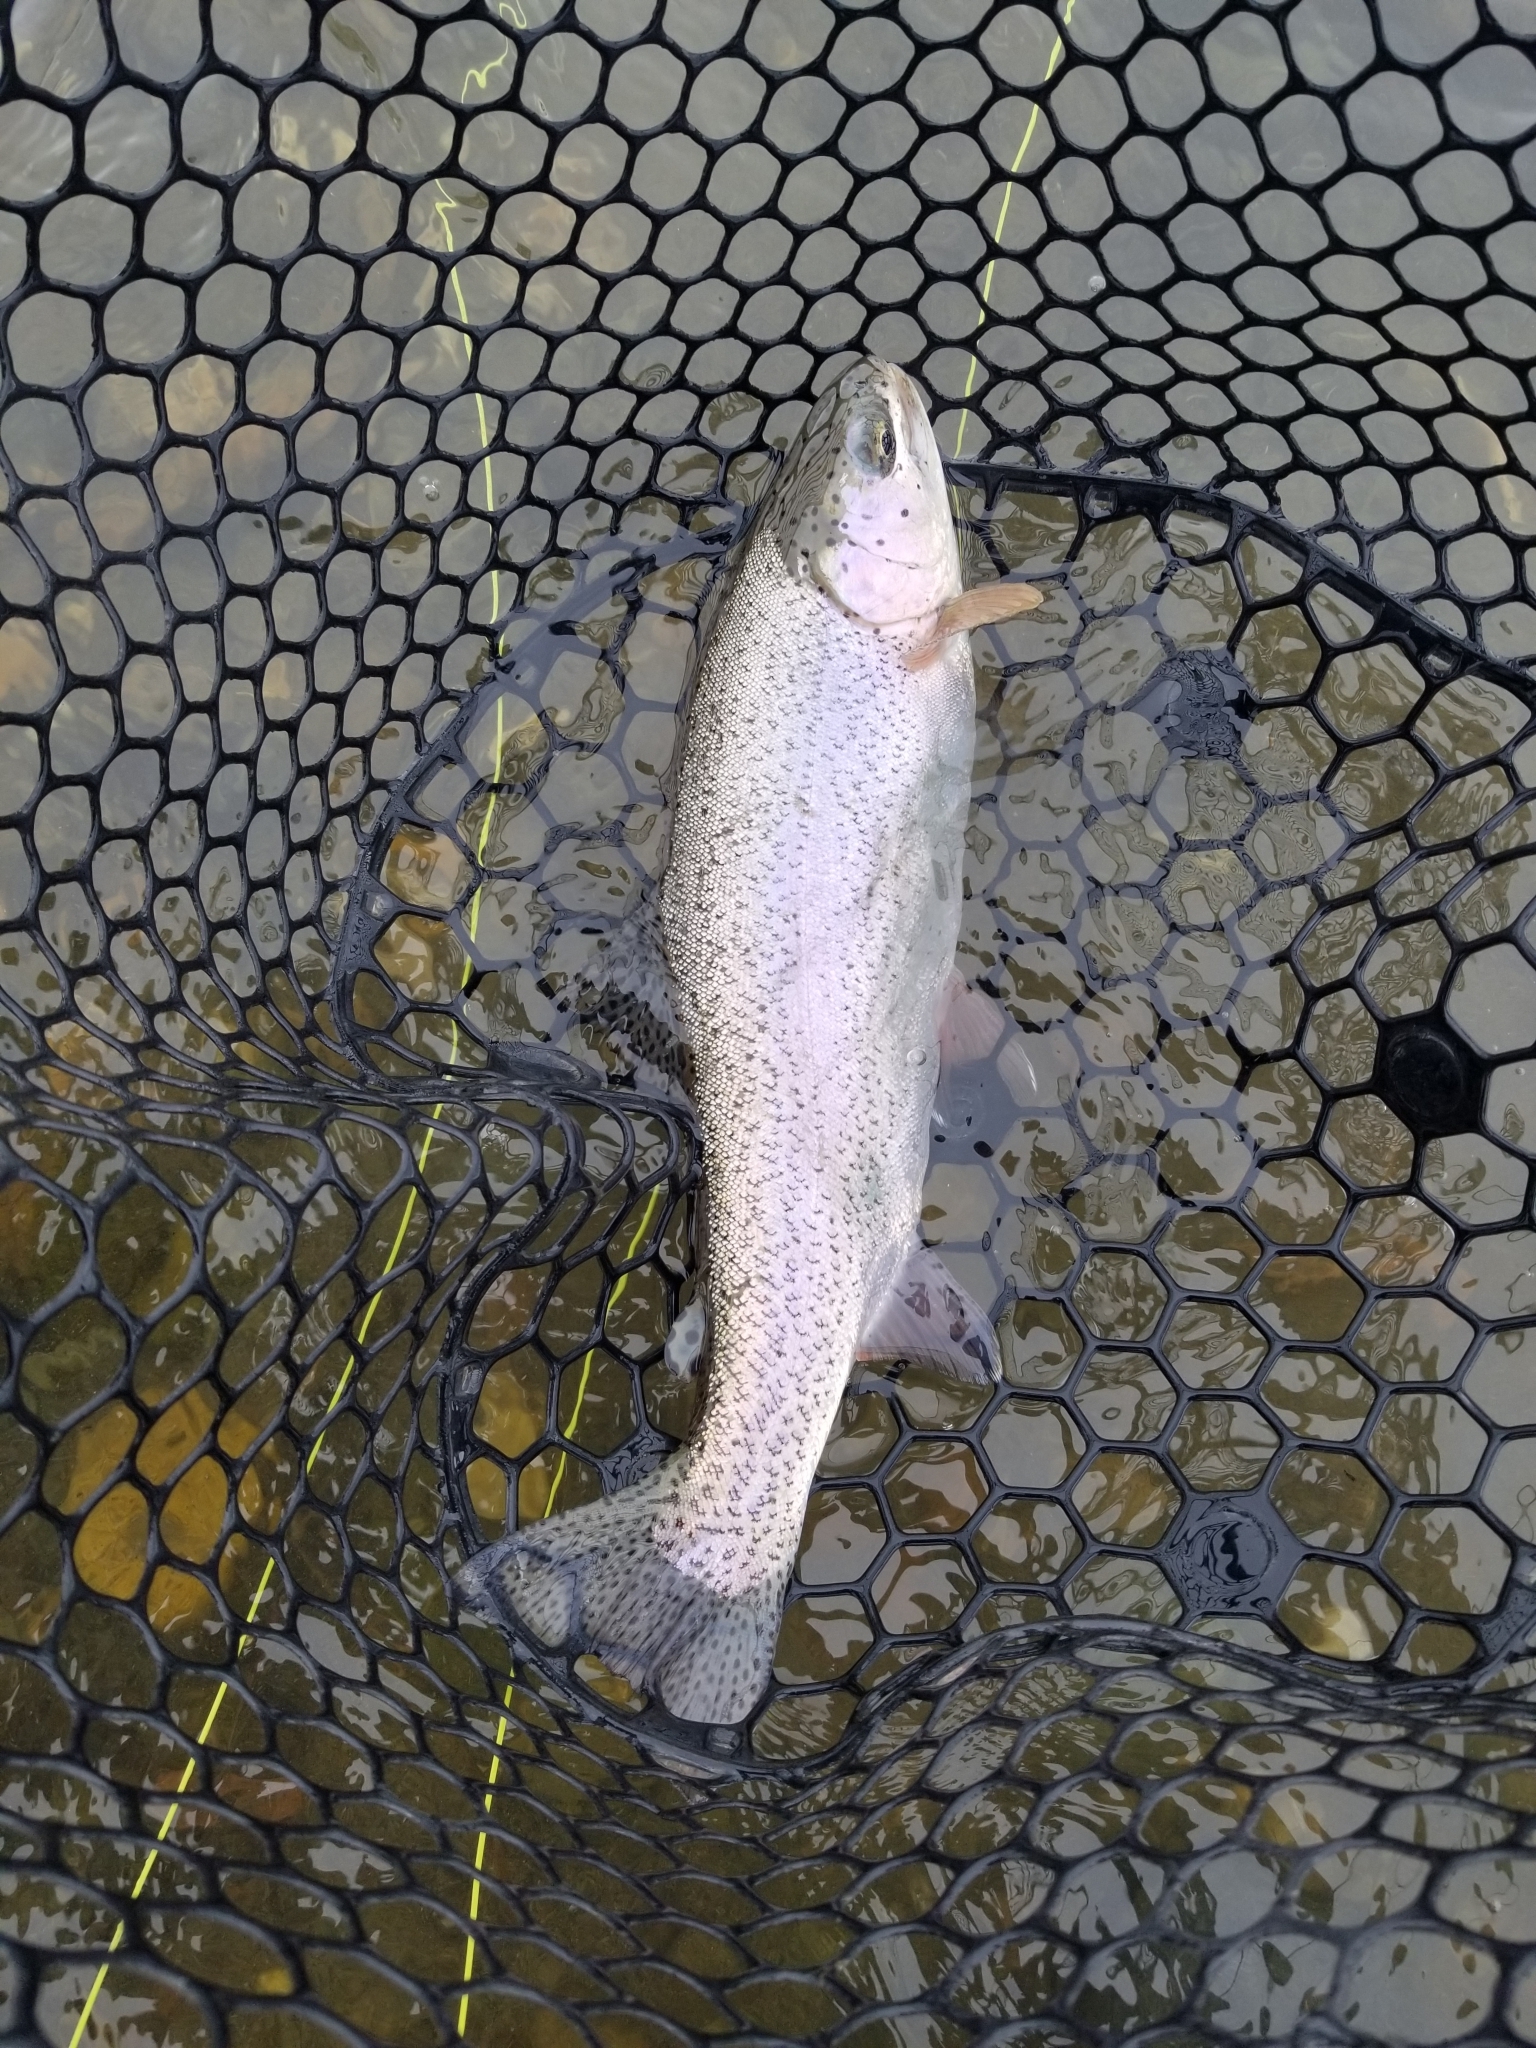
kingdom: Animalia
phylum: Chordata
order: Salmoniformes
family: Salmonidae
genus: Oncorhynchus
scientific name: Oncorhynchus mykiss
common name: Rainbow trout
